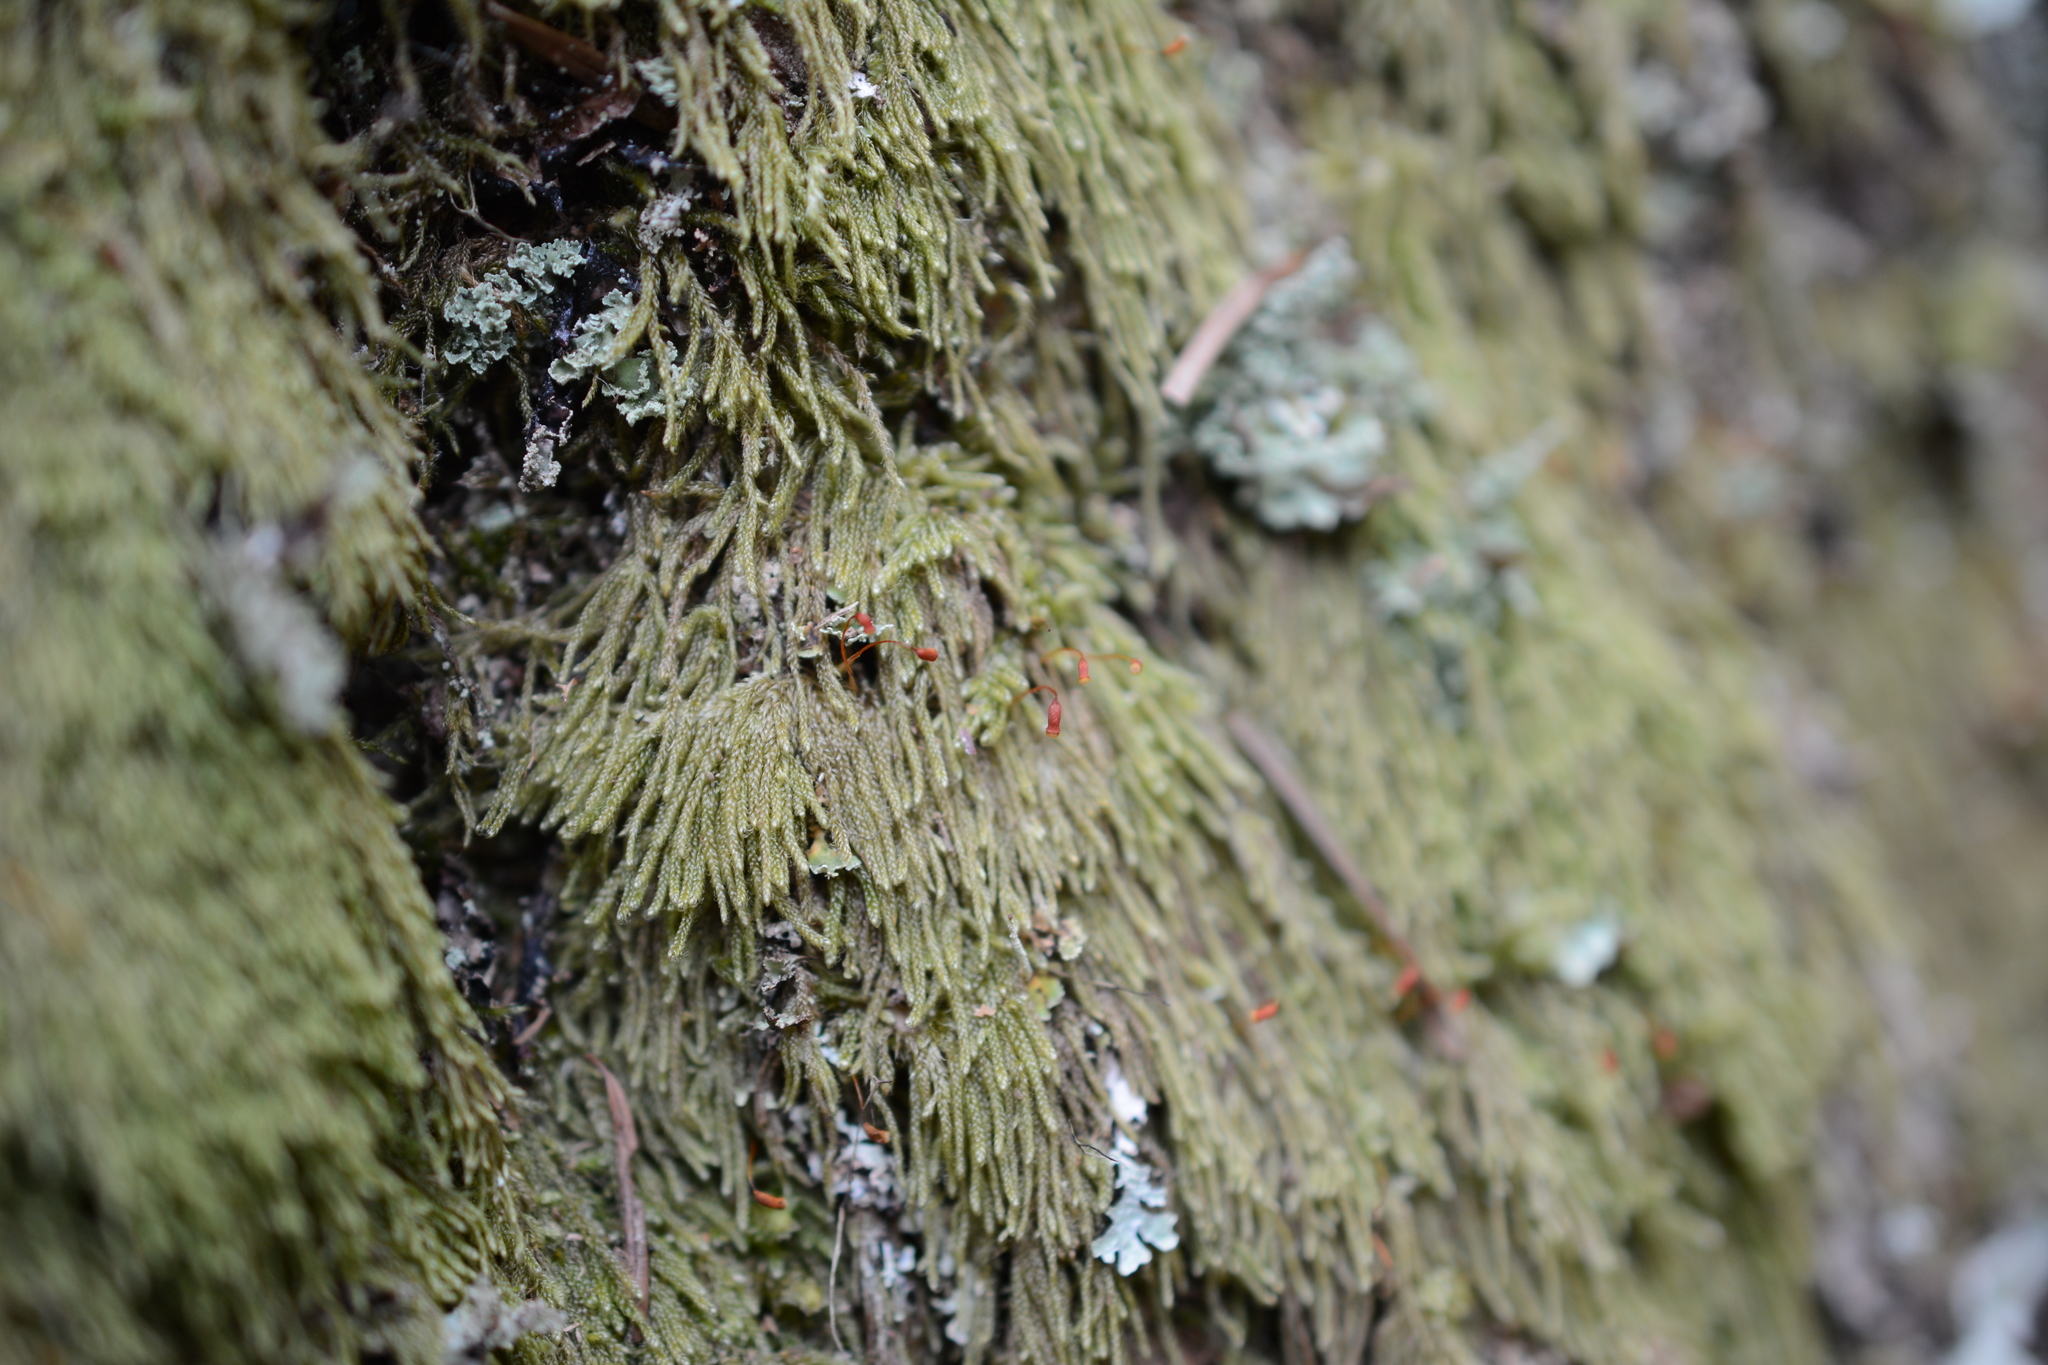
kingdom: Plantae
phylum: Bryophyta
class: Bryopsida
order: Hypnales
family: Pylaisiadelphaceae
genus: Trochophyllohypnum
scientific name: Trochophyllohypnum circinale
